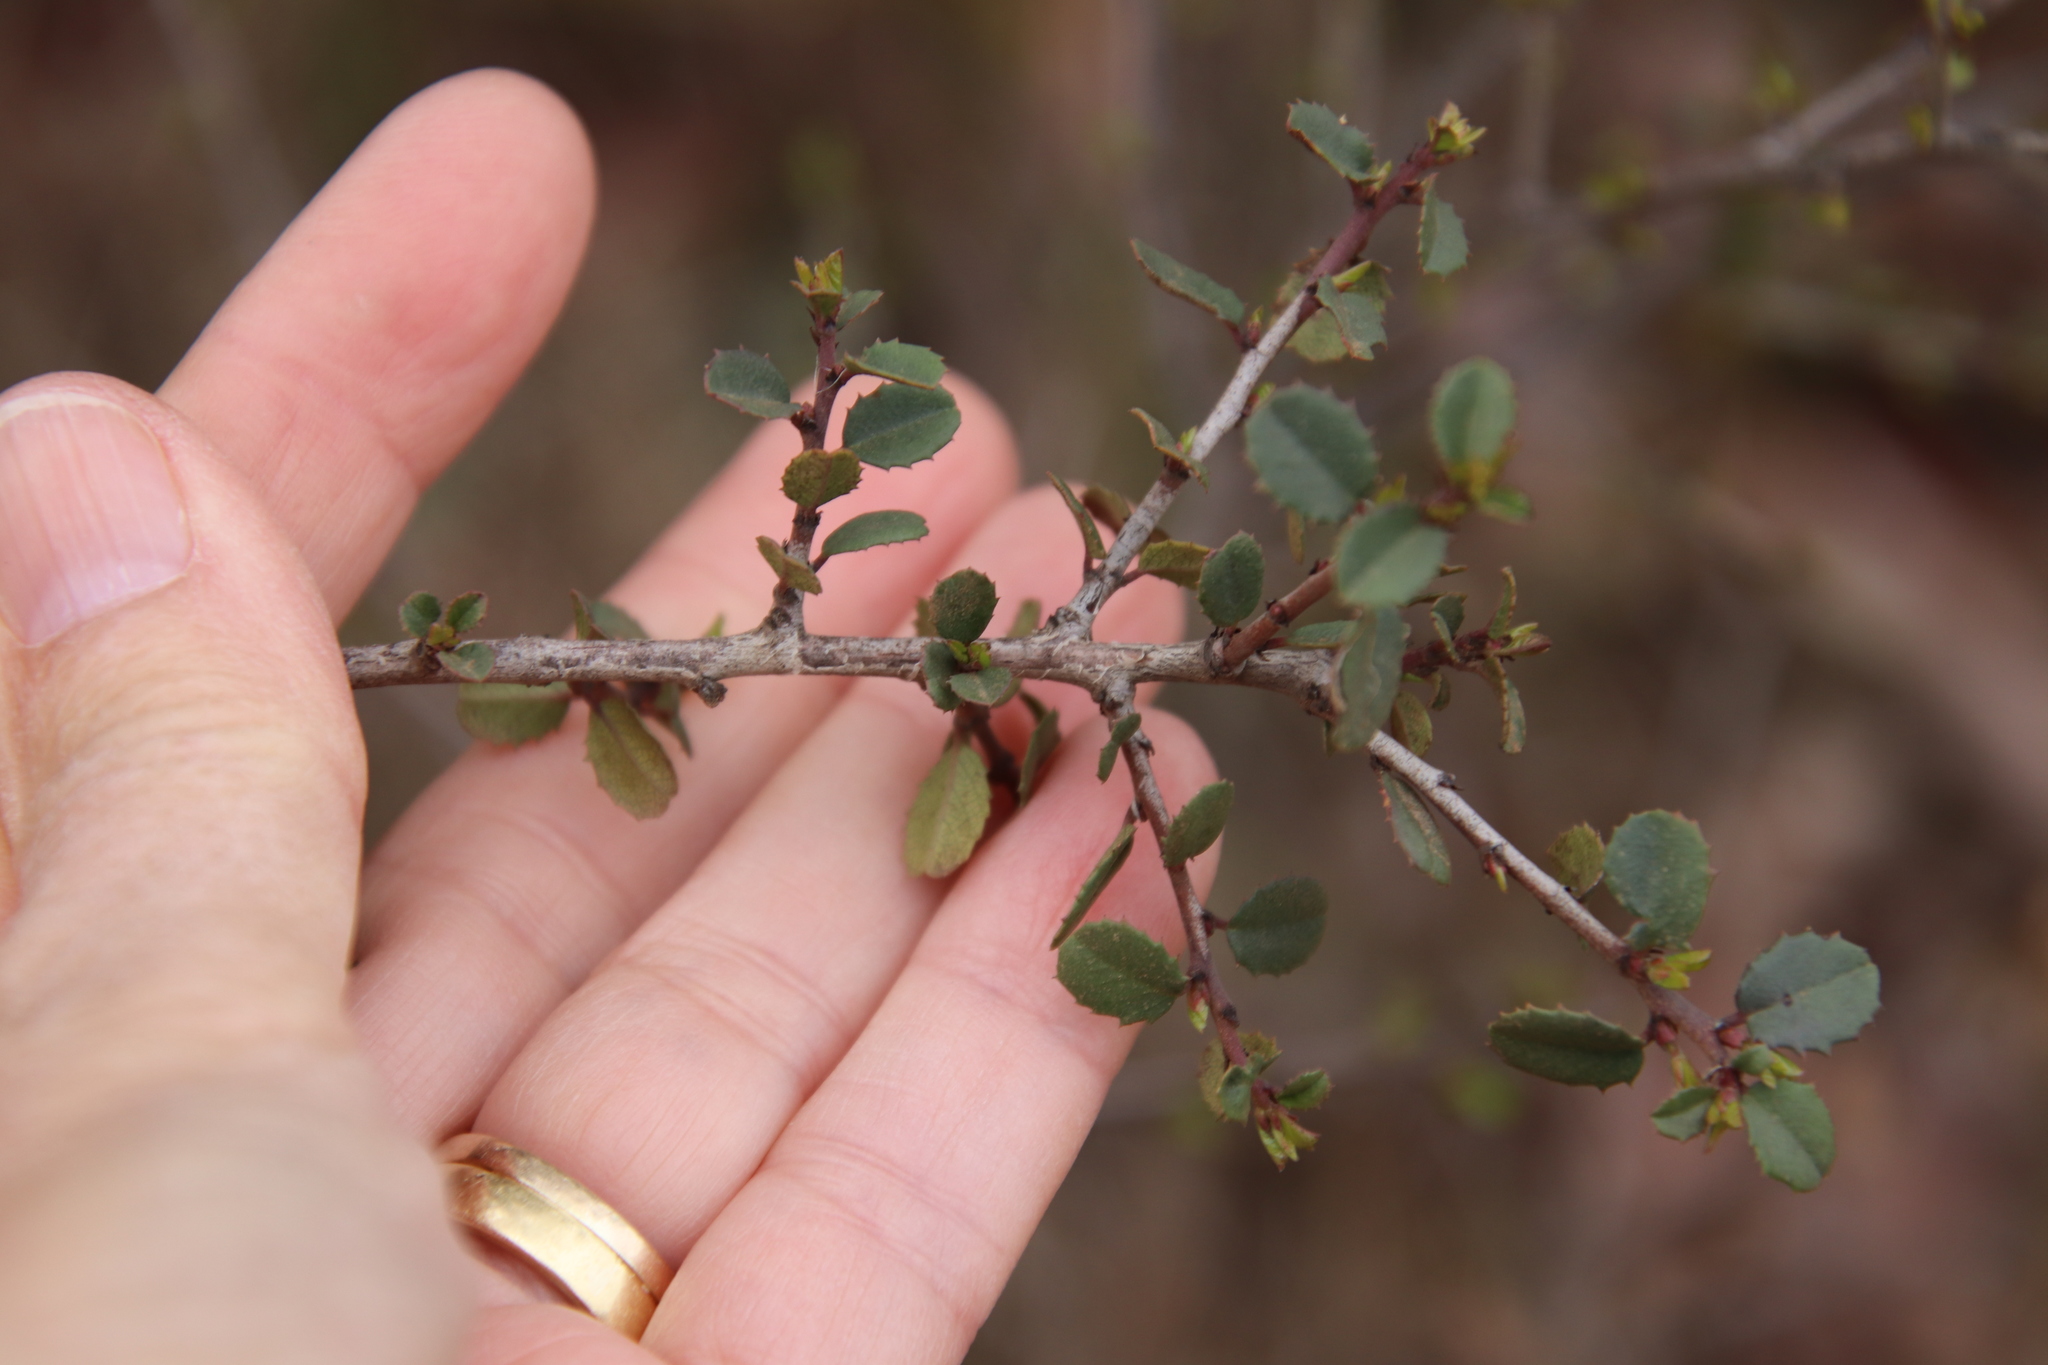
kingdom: Plantae
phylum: Tracheophyta
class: Magnoliopsida
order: Rosales
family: Rhamnaceae
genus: Endotropis
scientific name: Endotropis crocea
